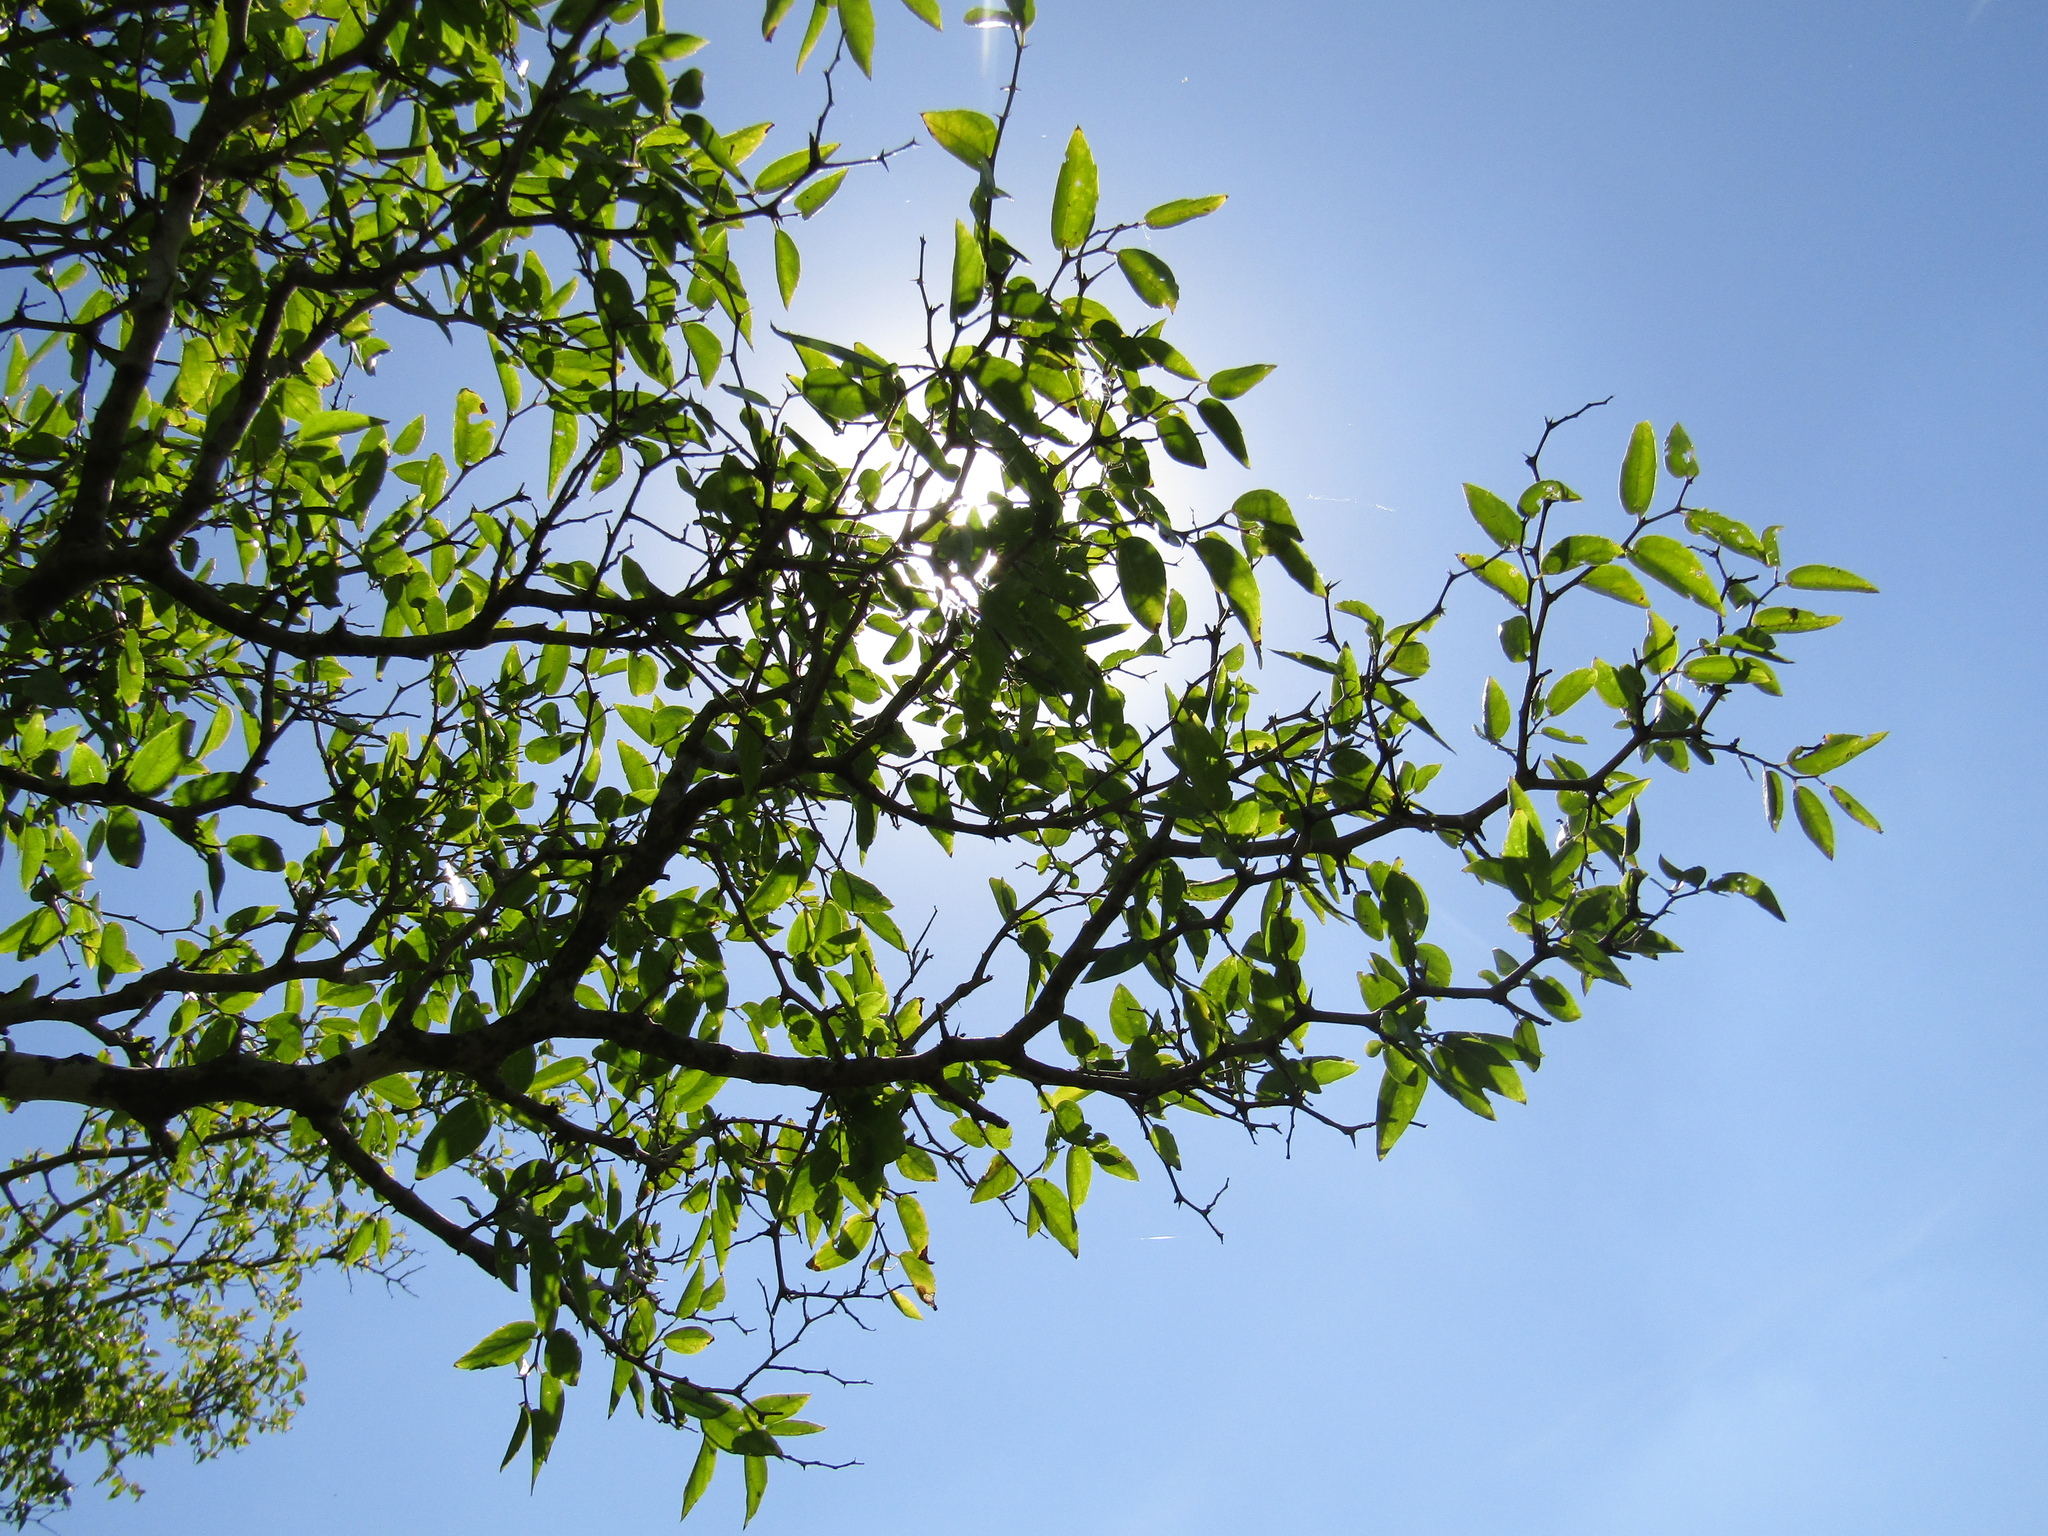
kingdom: Plantae
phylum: Tracheophyta
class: Magnoliopsida
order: Rosales
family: Cannabaceae
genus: Celtis
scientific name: Celtis tala
